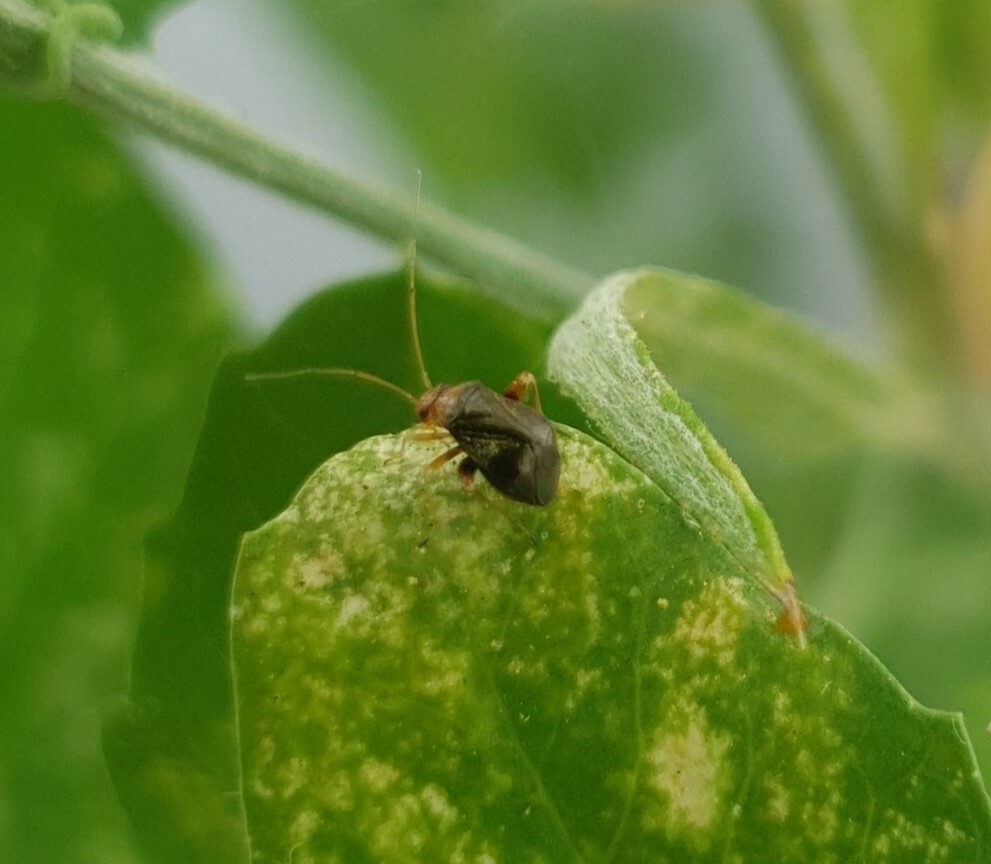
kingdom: Animalia
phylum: Arthropoda
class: Insecta
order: Hemiptera
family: Miridae
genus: Halticus
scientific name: Halticus luteicollis
